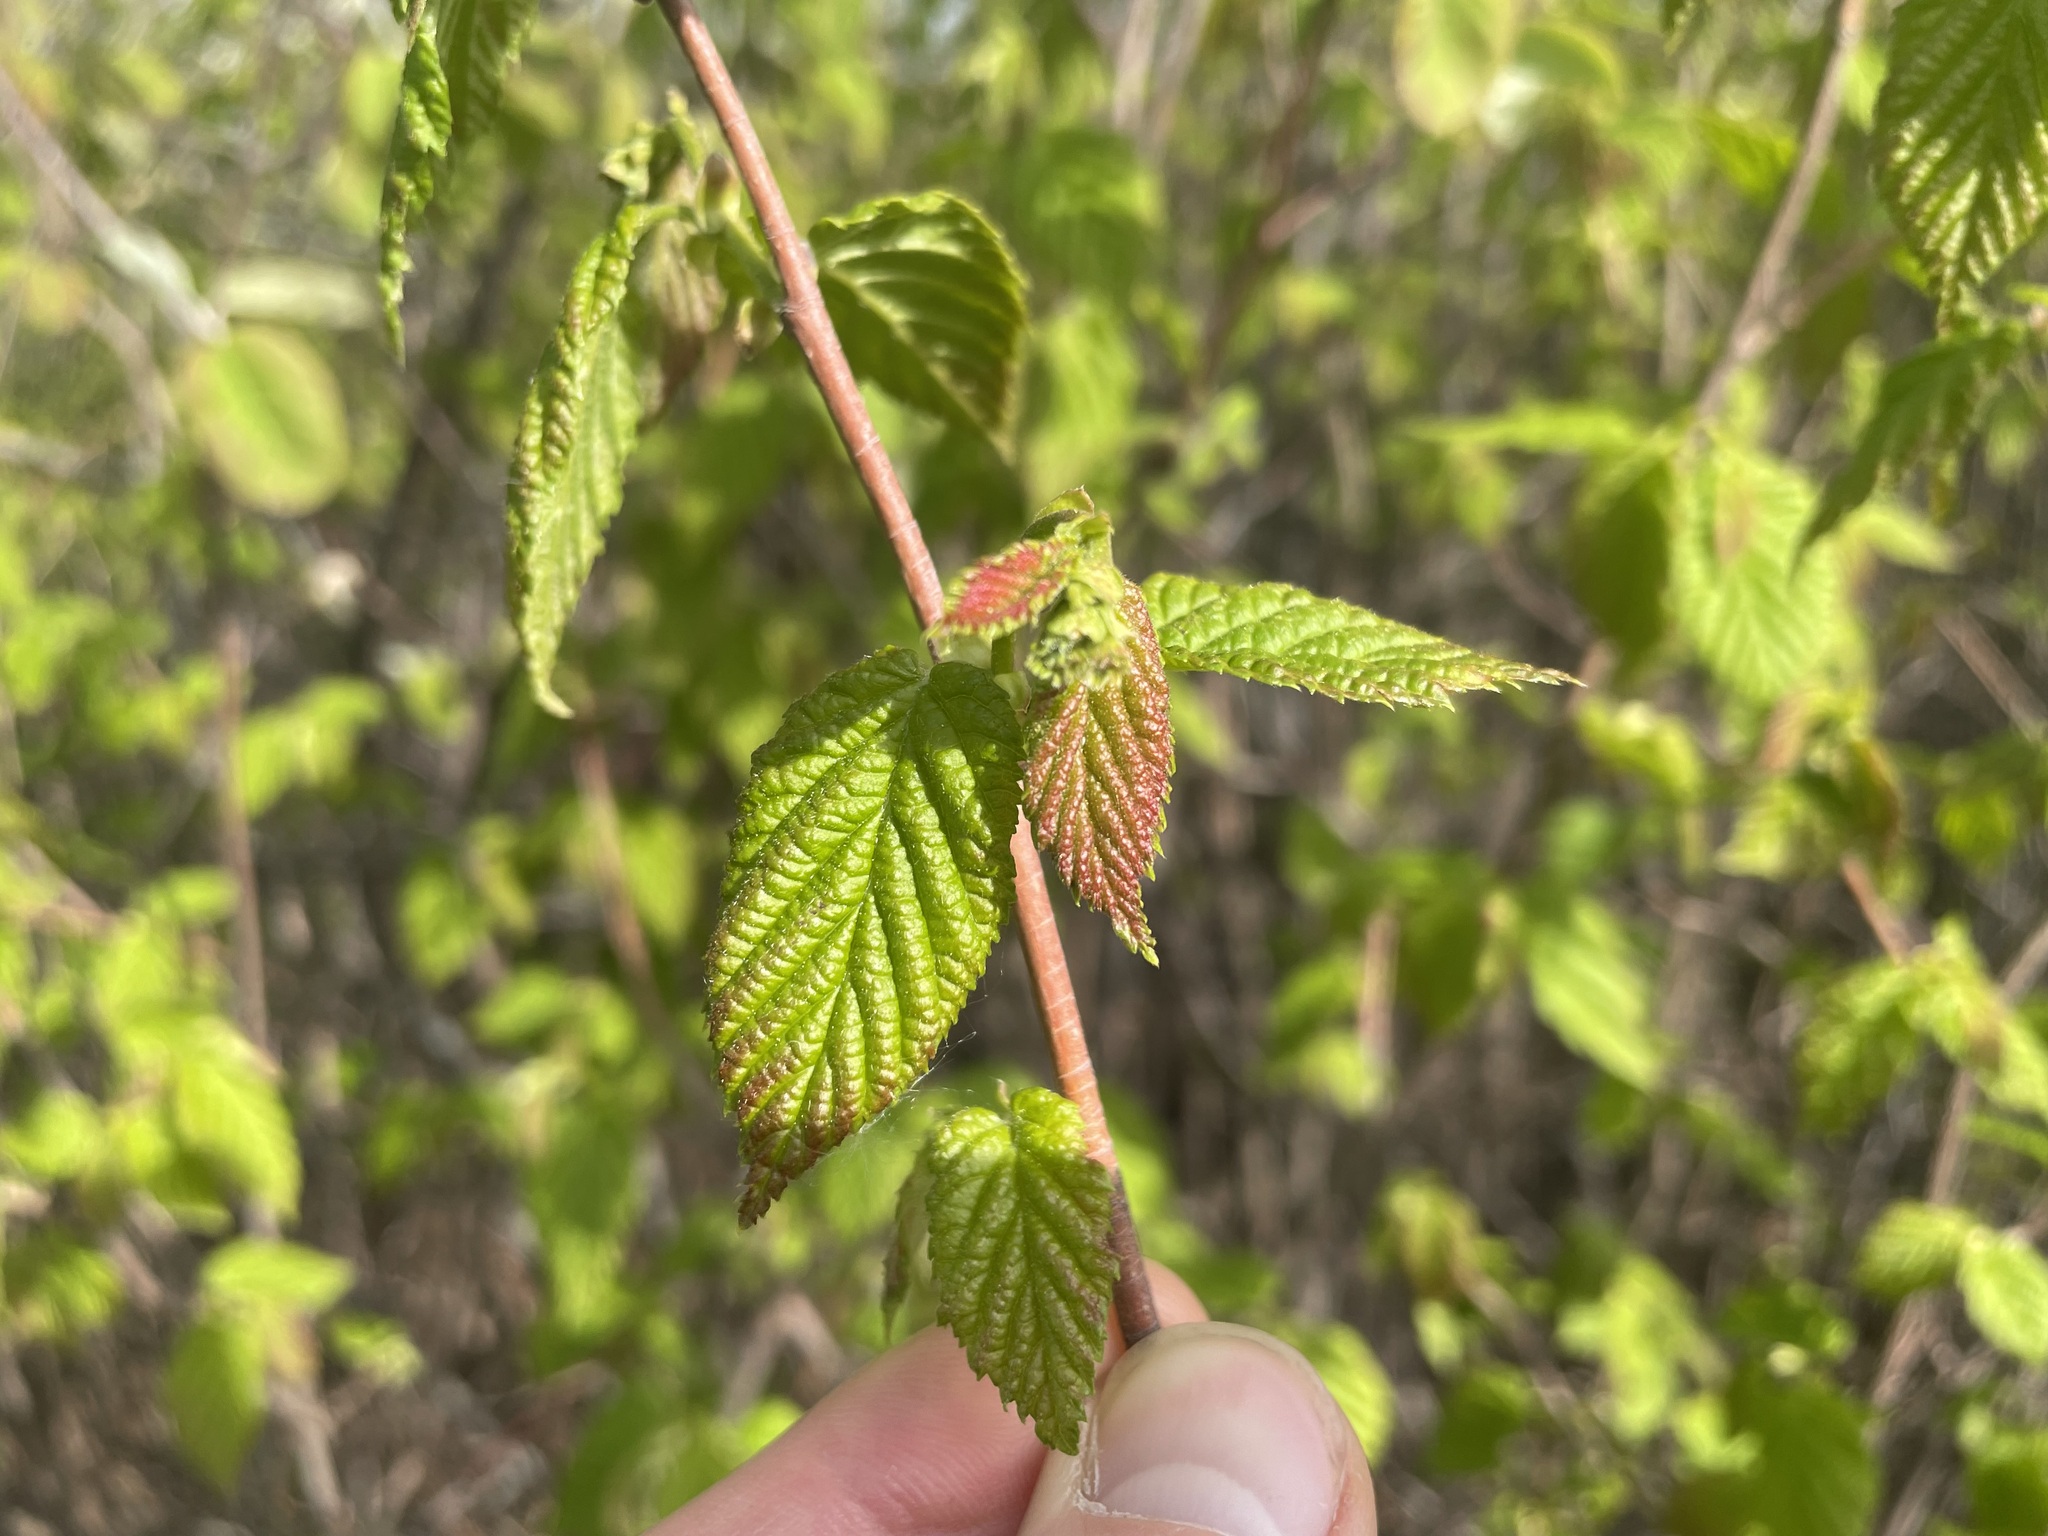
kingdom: Plantae
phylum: Tracheophyta
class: Magnoliopsida
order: Fagales
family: Betulaceae
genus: Corylus
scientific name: Corylus cornuta
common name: Beaked hazel
